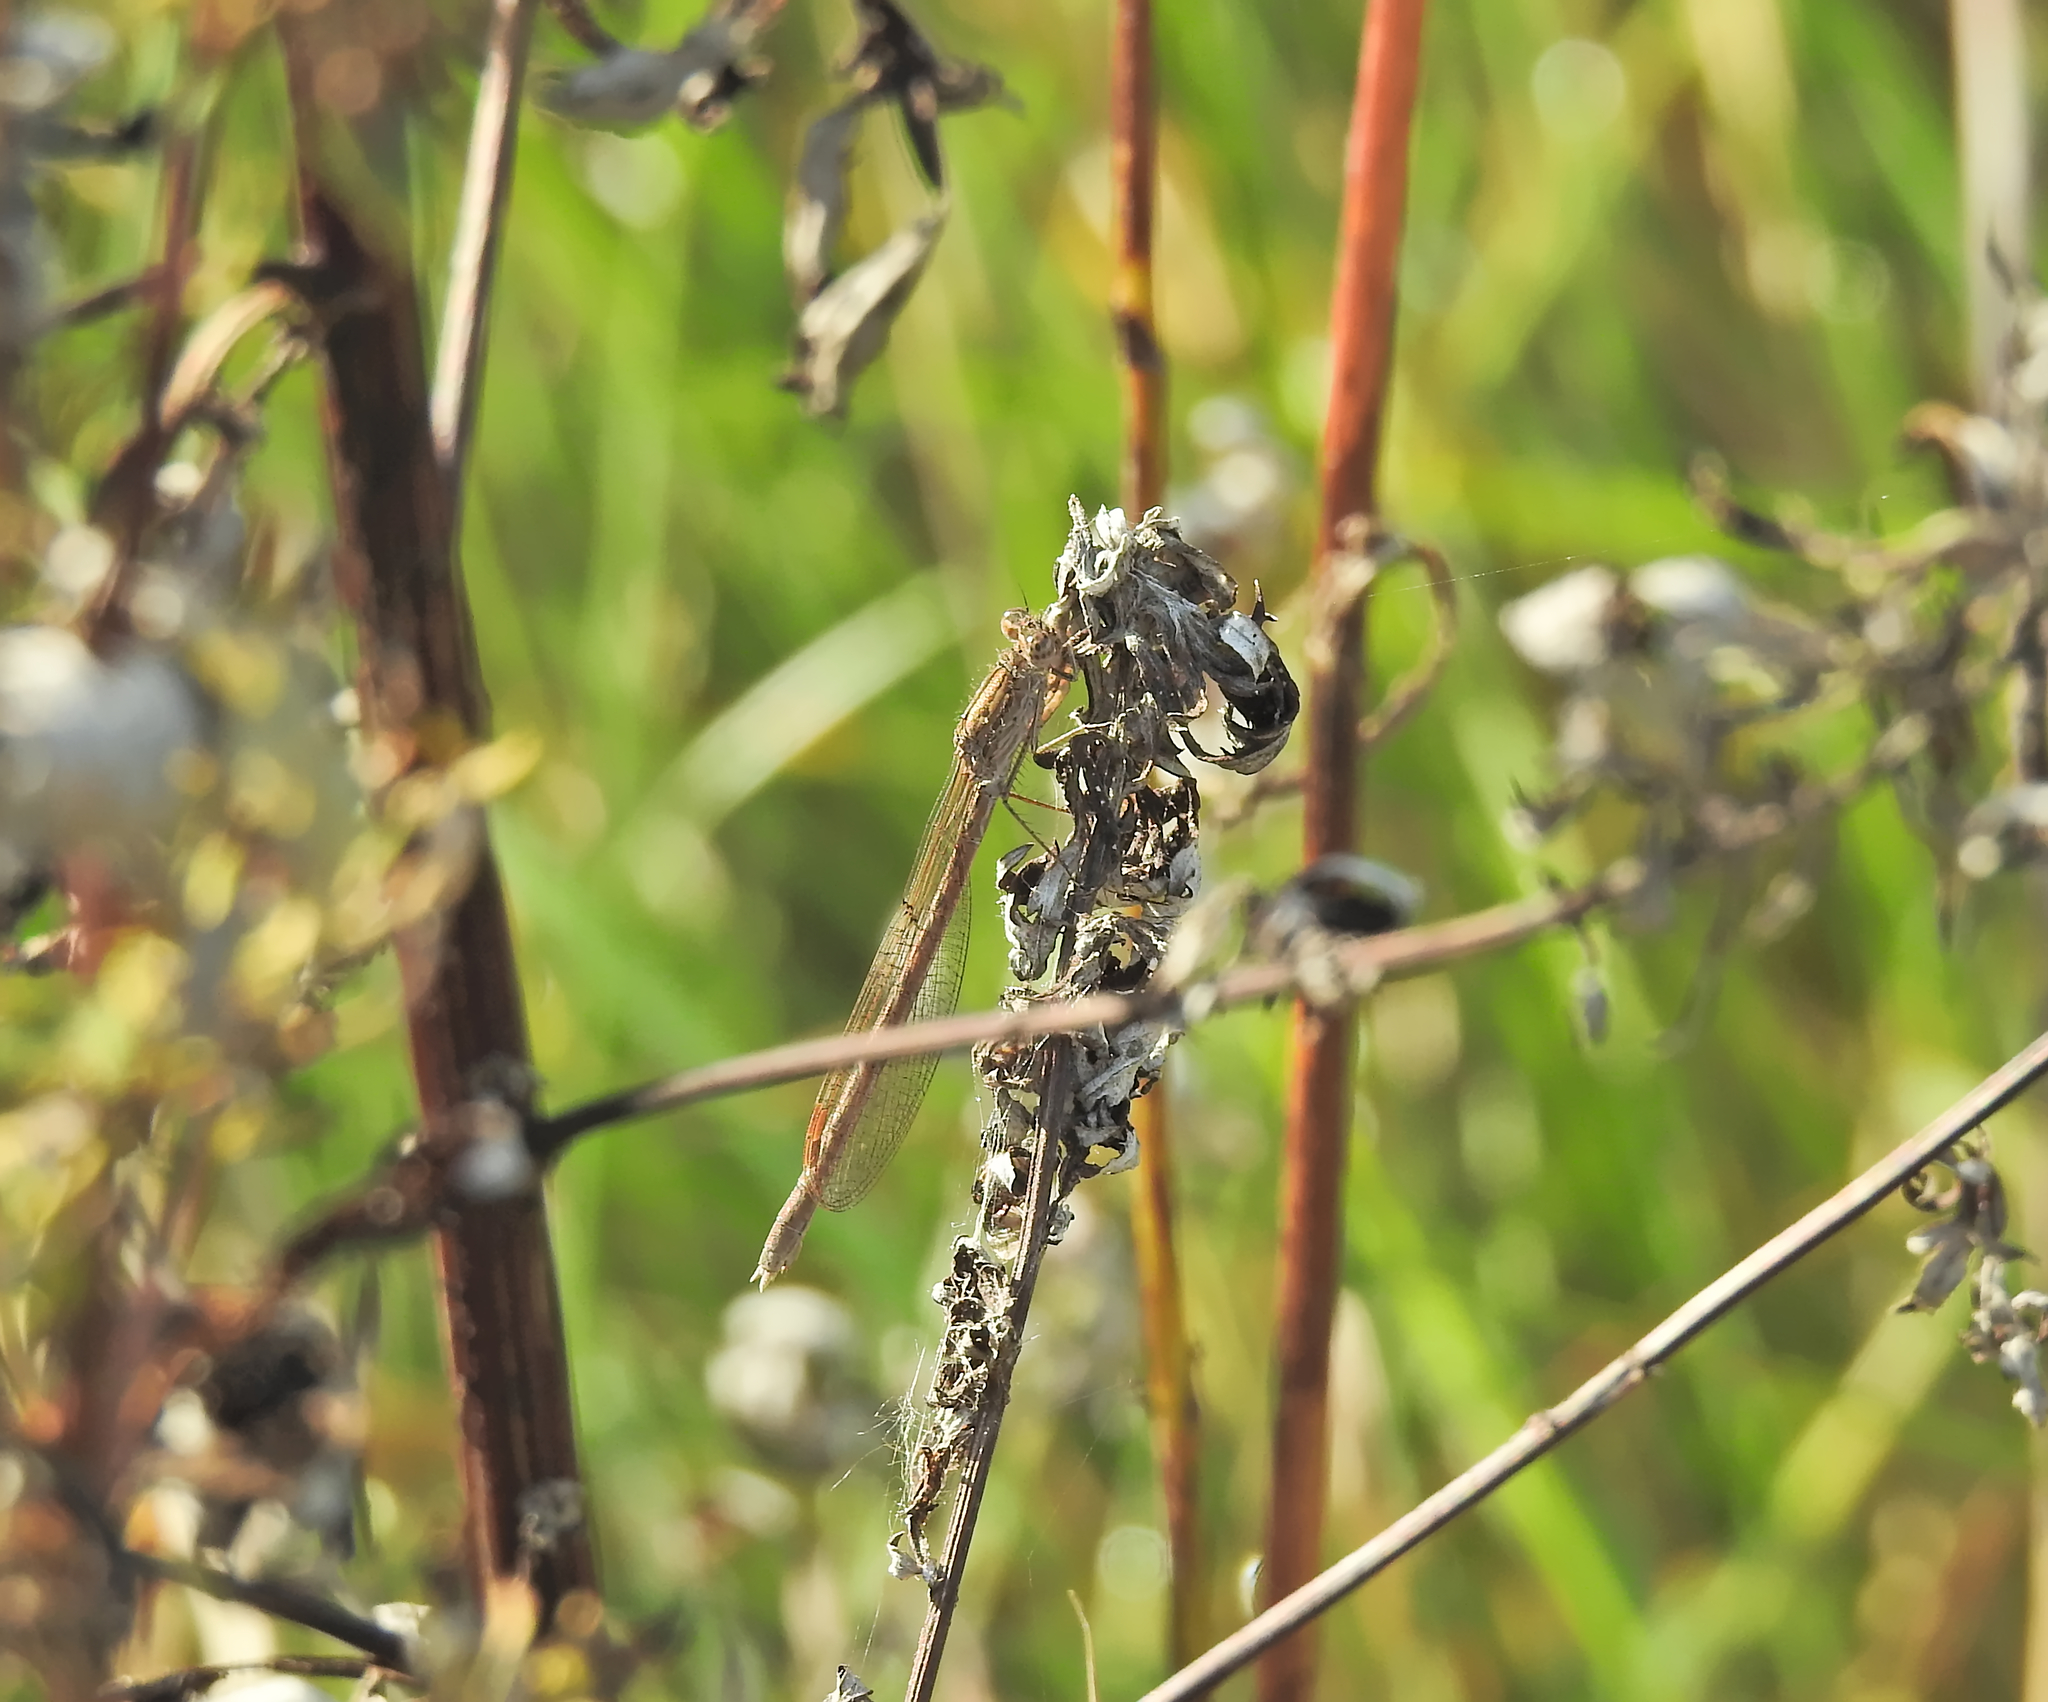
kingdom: Animalia
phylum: Arthropoda
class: Insecta
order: Odonata
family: Lestidae
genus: Sympecma
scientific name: Sympecma paedisca
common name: Siberian winter damsel
